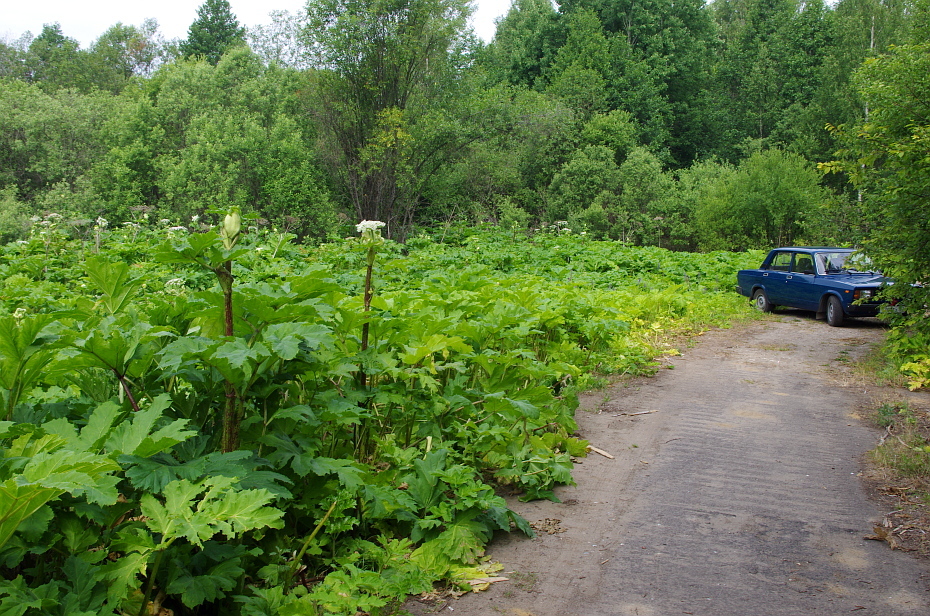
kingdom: Plantae
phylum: Tracheophyta
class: Magnoliopsida
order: Apiales
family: Apiaceae
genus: Heracleum
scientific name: Heracleum sosnowskyi
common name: Sosnowsky's hogweed
